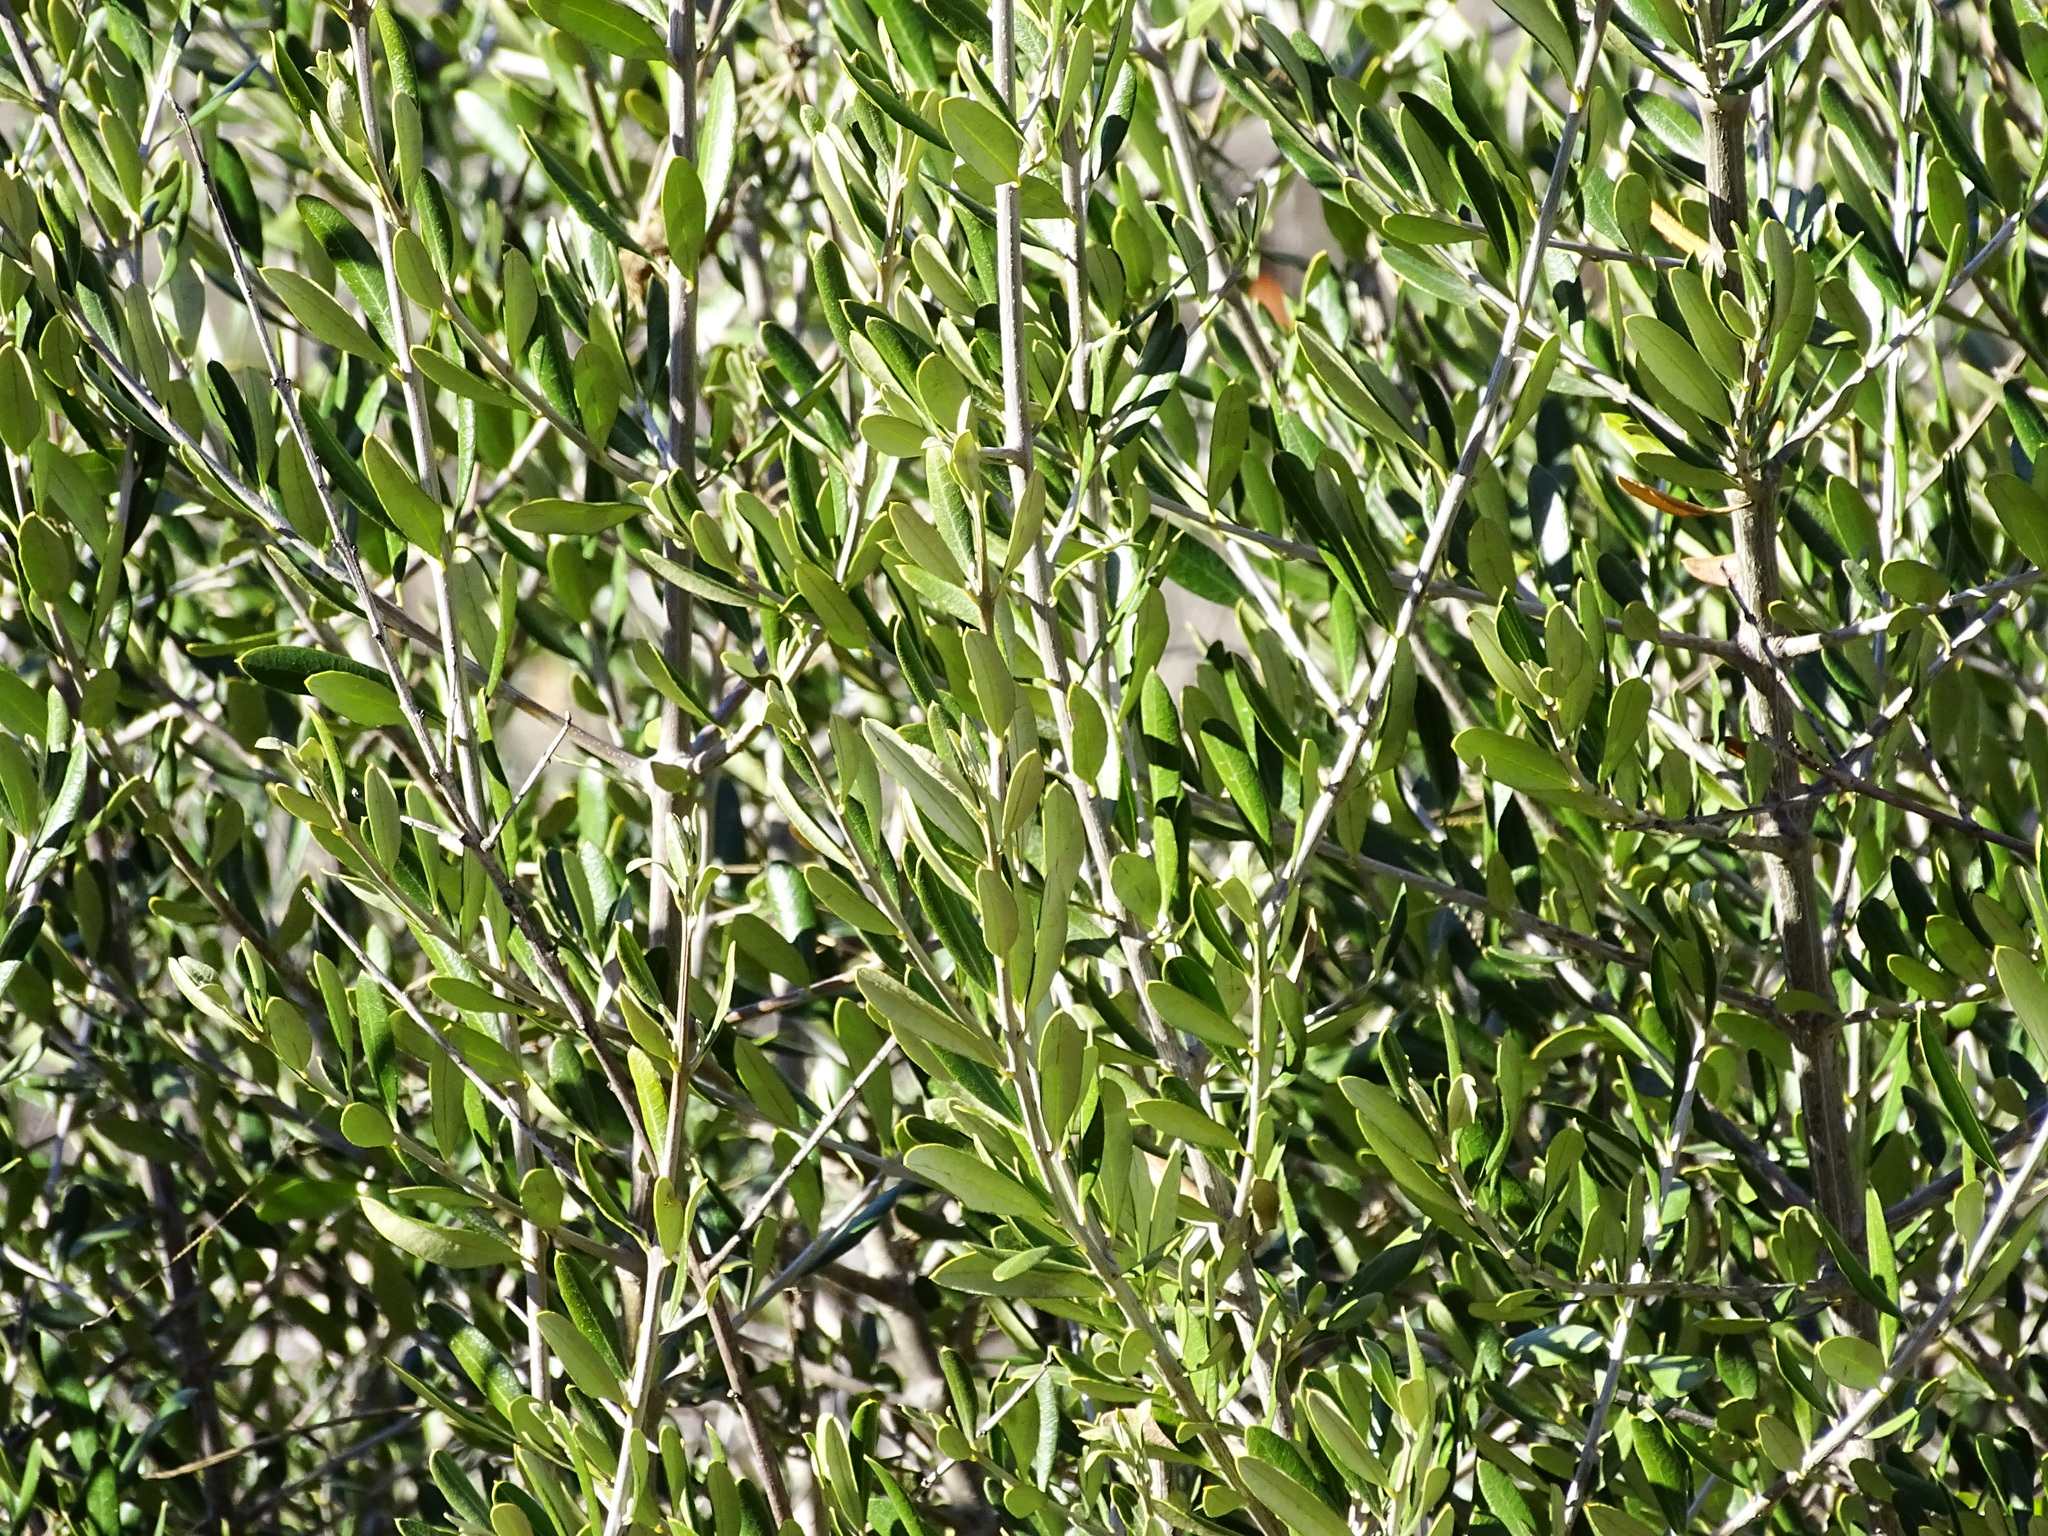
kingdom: Plantae
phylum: Tracheophyta
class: Magnoliopsida
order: Lamiales
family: Oleaceae
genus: Olea
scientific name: Olea europaea
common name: Olive
